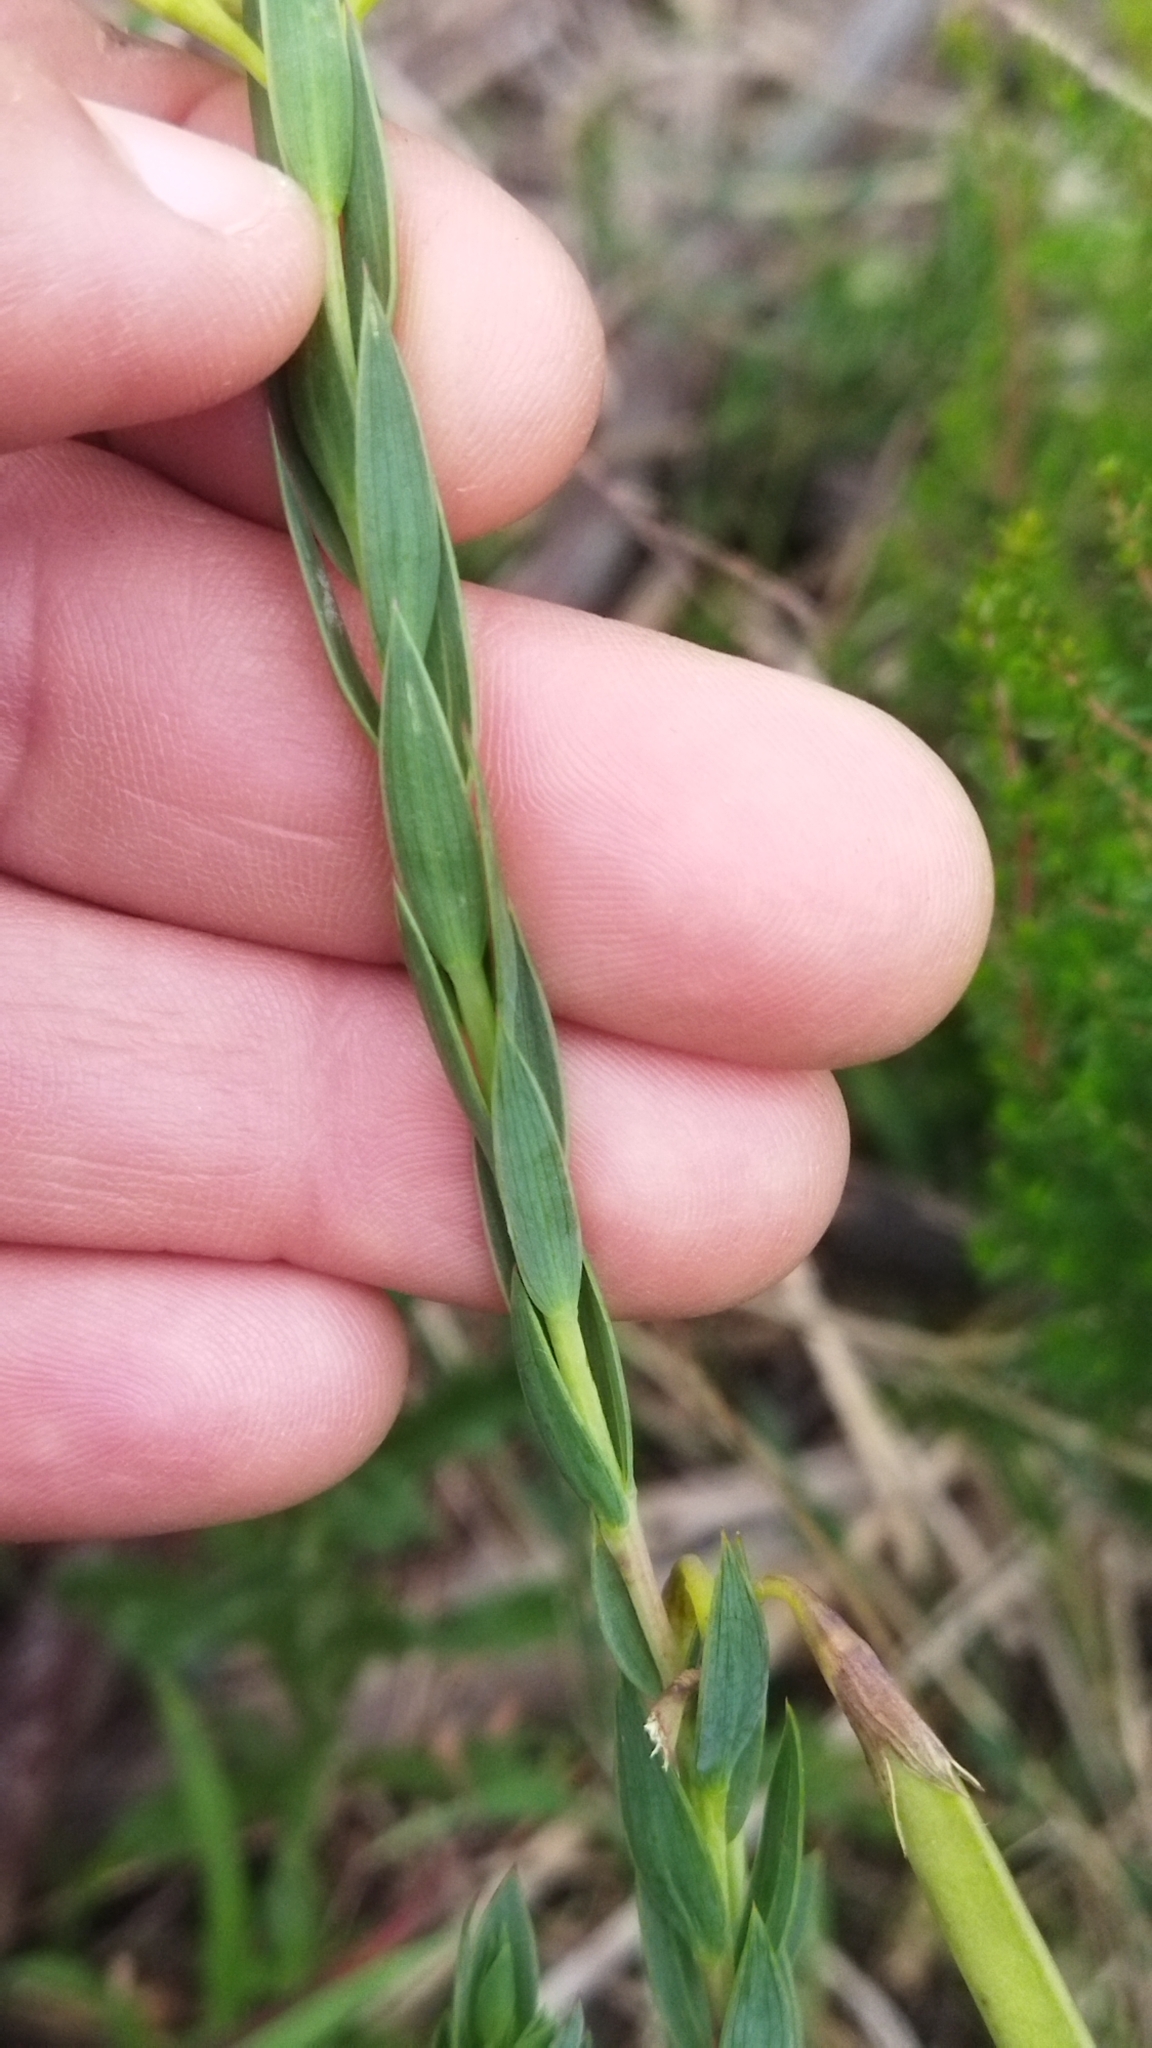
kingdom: Plantae
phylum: Tracheophyta
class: Magnoliopsida
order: Fabales
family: Fabaceae
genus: Aspalathus
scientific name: Aspalathus angustifolia
